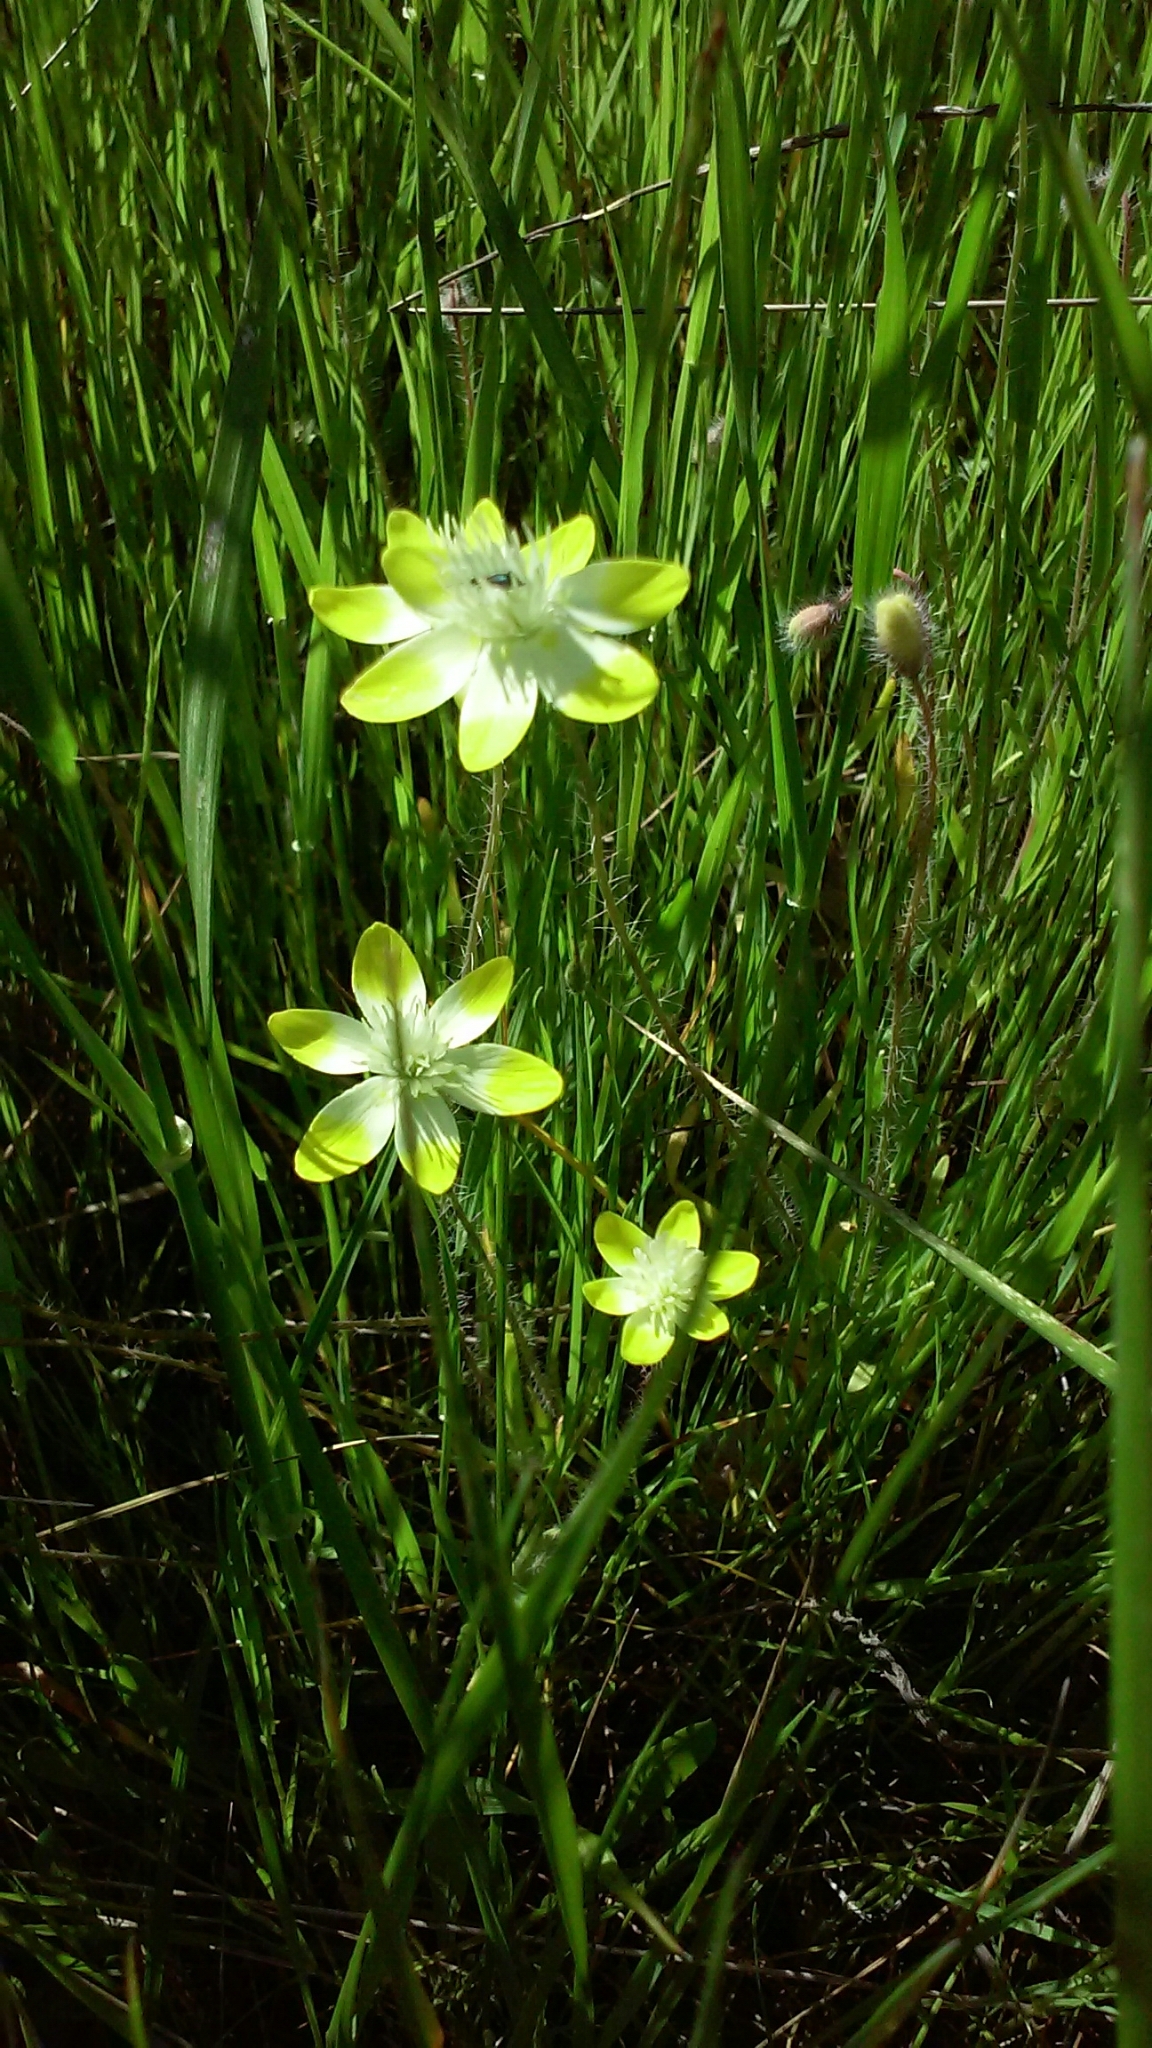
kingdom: Plantae
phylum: Tracheophyta
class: Magnoliopsida
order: Ranunculales
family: Papaveraceae
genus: Platystemon
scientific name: Platystemon californicus
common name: Cream-cups
